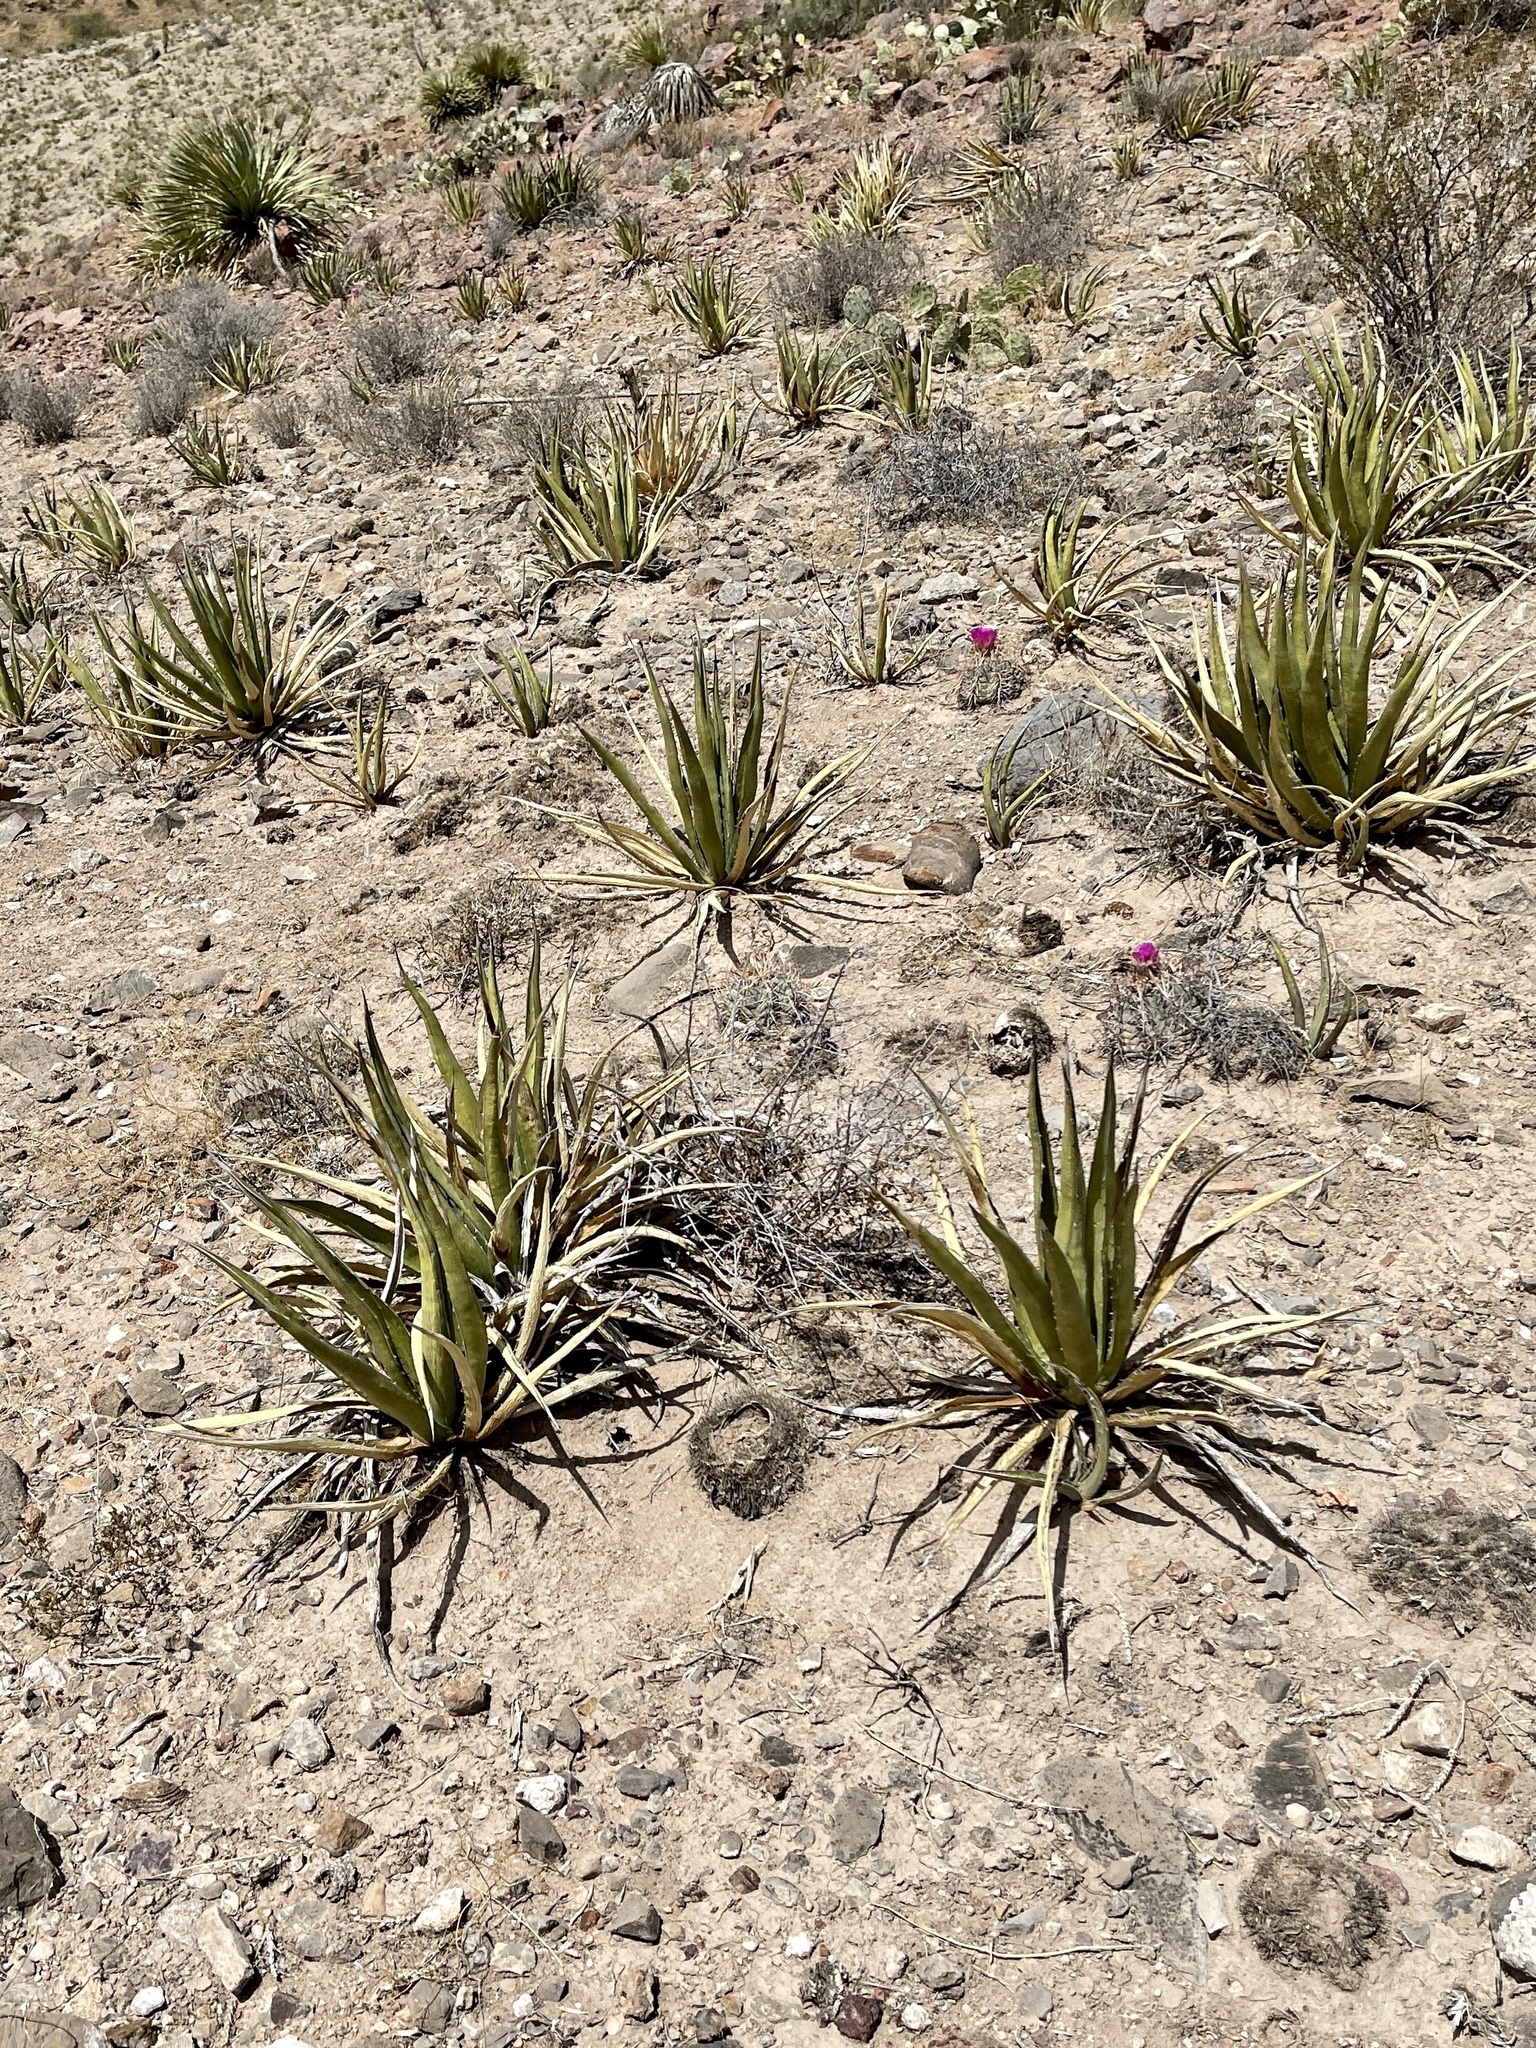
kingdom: Plantae
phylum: Tracheophyta
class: Liliopsida
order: Asparagales
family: Asparagaceae
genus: Agave
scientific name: Agave lechuguilla
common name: Lecheguilla agave
